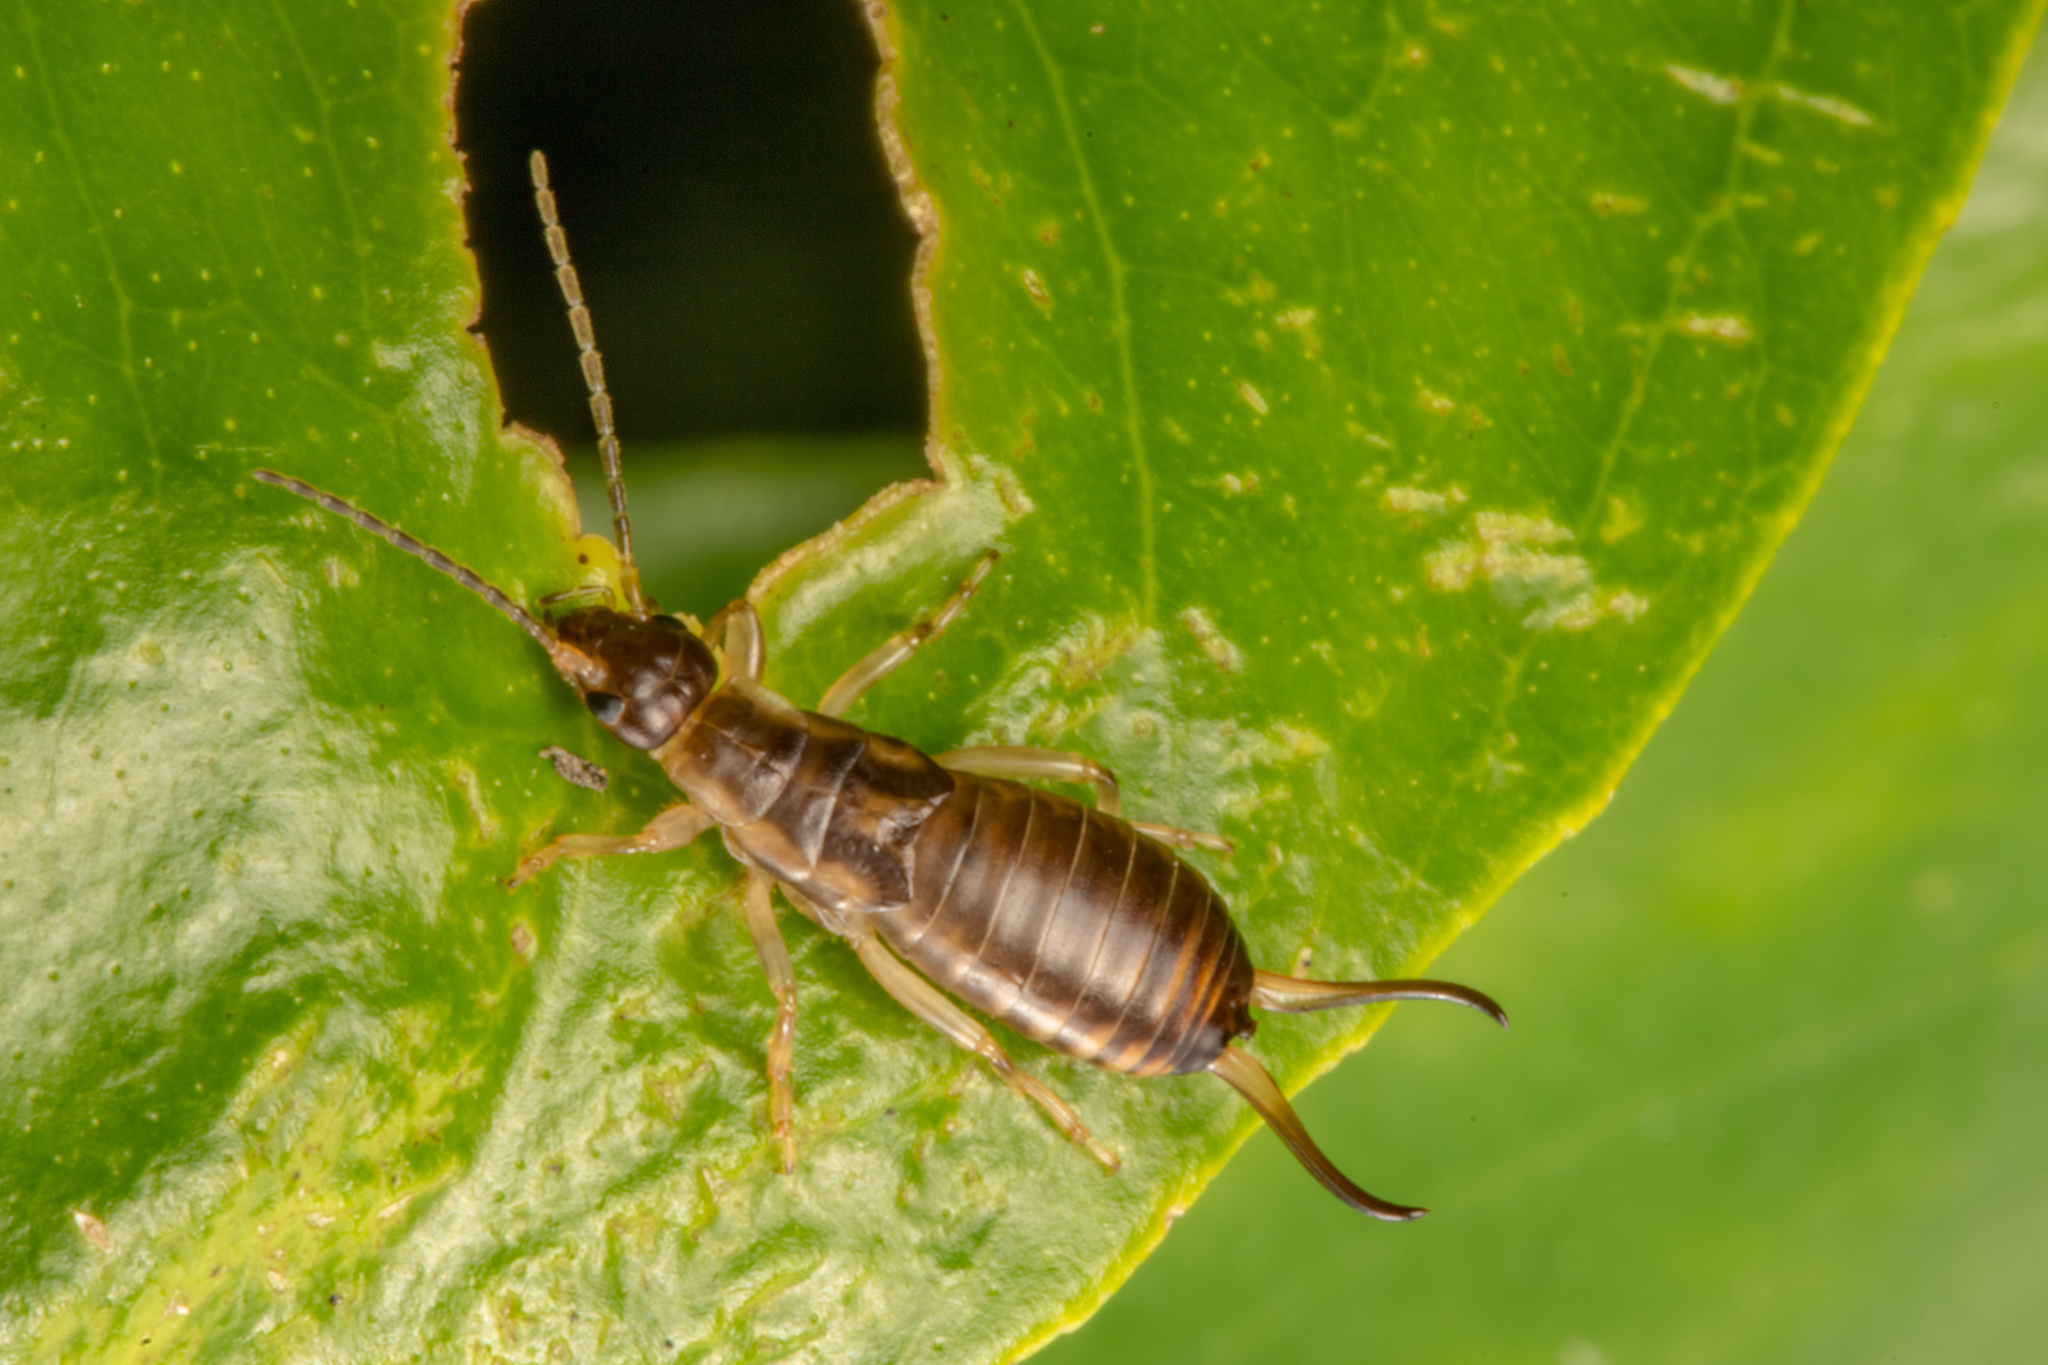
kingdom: Animalia
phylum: Arthropoda
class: Insecta
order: Dermaptera
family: Forficulidae
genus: Forficula
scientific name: Forficula dentata
